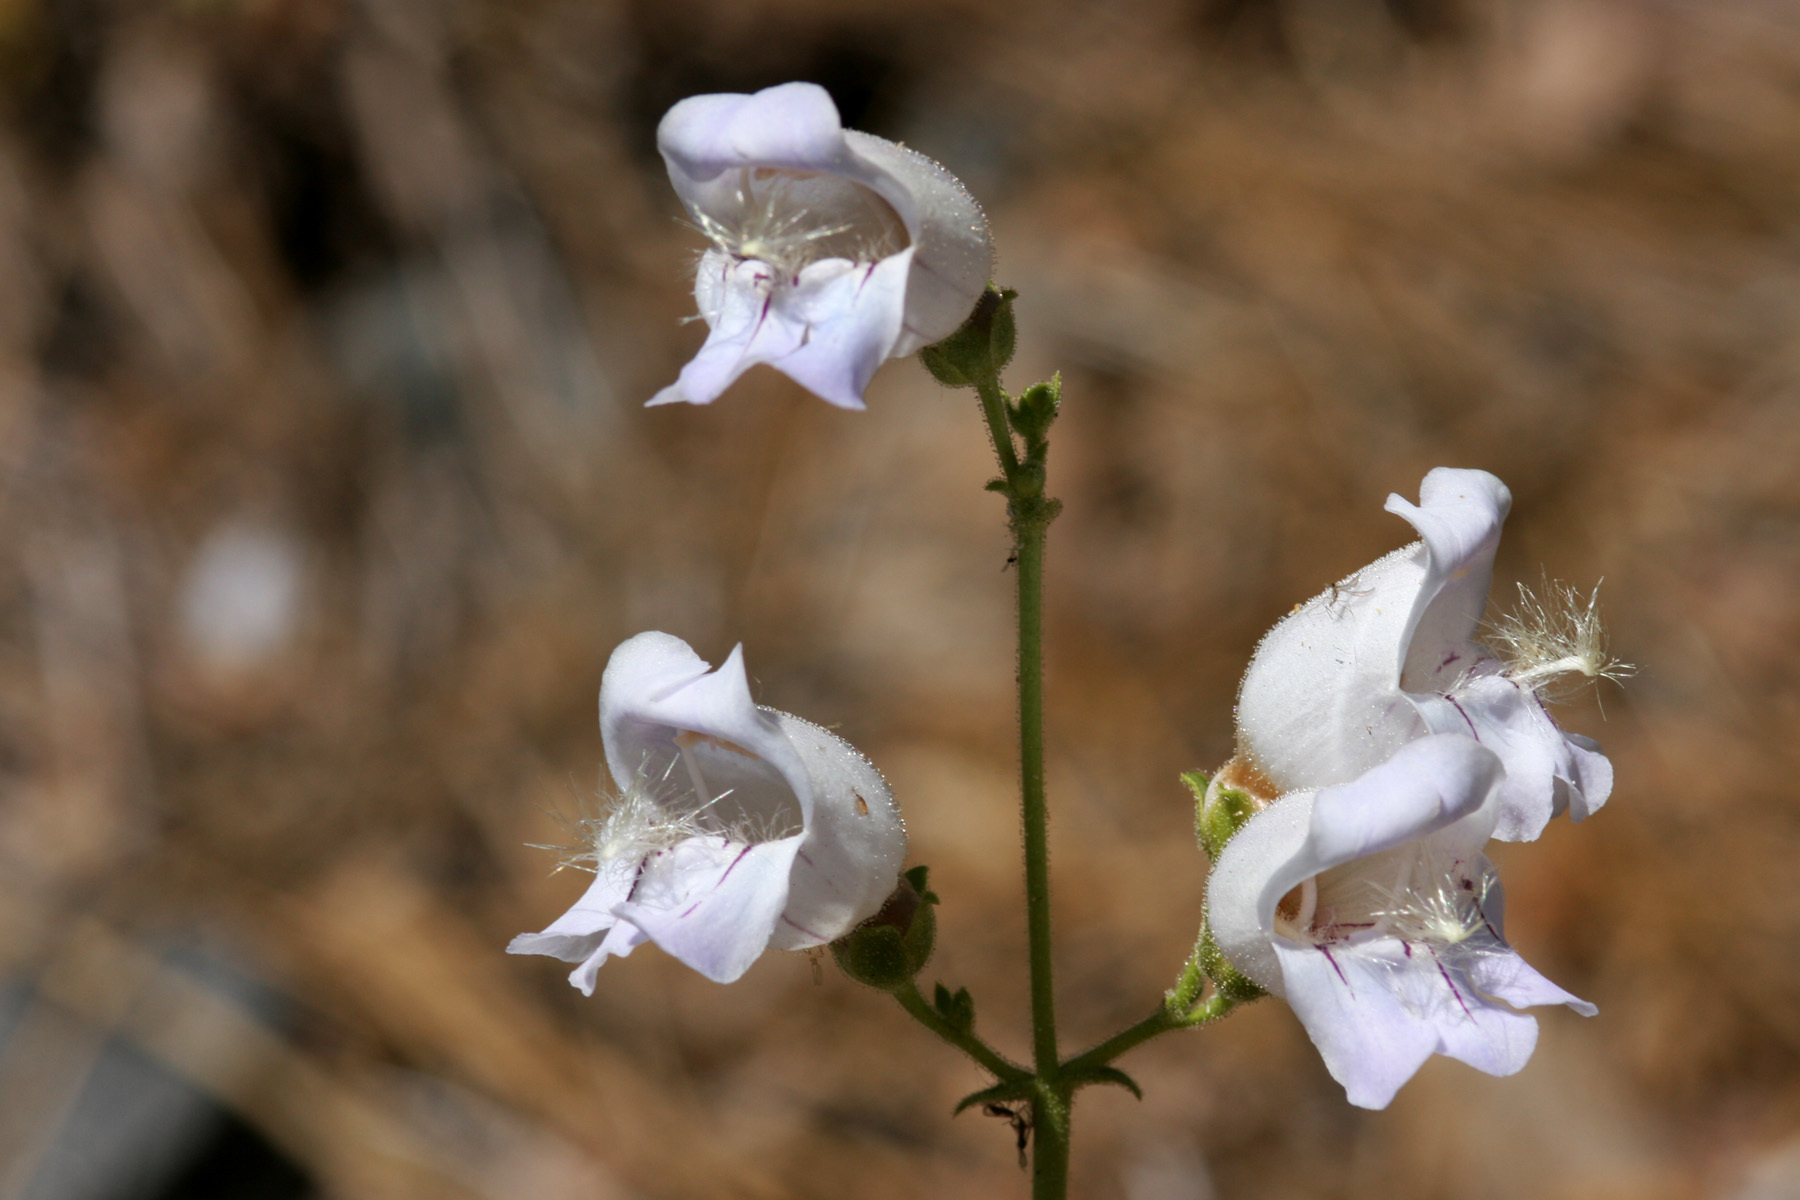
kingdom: Plantae
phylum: Tracheophyta
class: Magnoliopsida
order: Lamiales
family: Plantaginaceae
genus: Penstemon
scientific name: Penstemon grinnellii
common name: Grinnell's beardtongue
